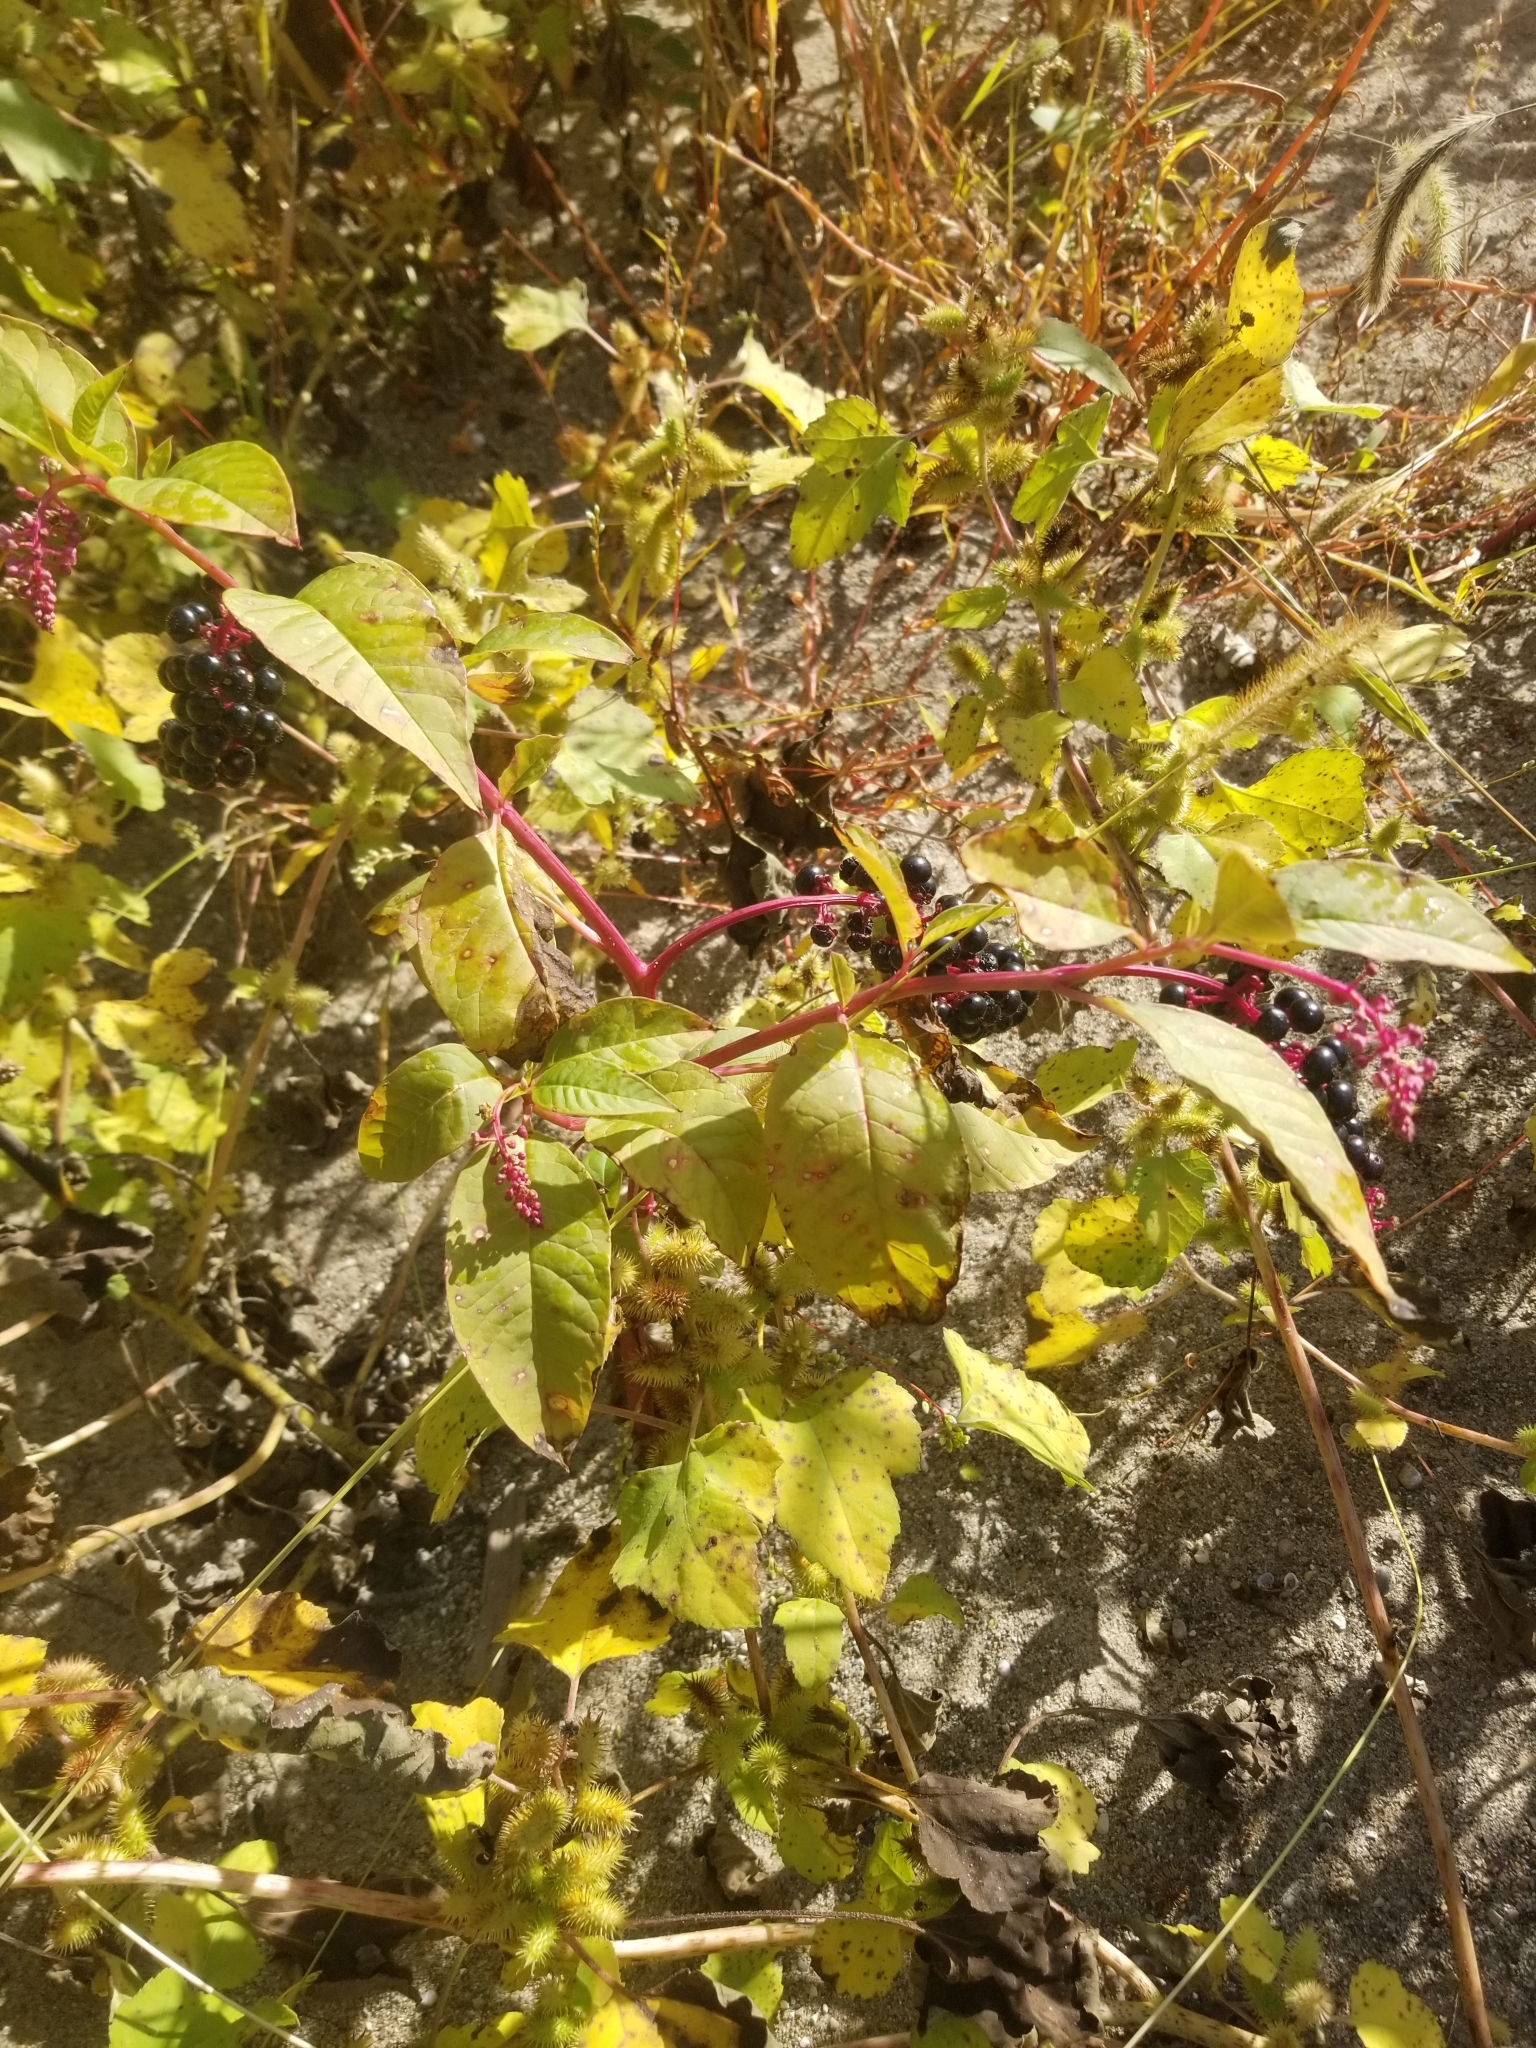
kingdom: Plantae
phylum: Tracheophyta
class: Magnoliopsida
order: Caryophyllales
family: Phytolaccaceae
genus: Phytolacca
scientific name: Phytolacca americana
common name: American pokeweed
